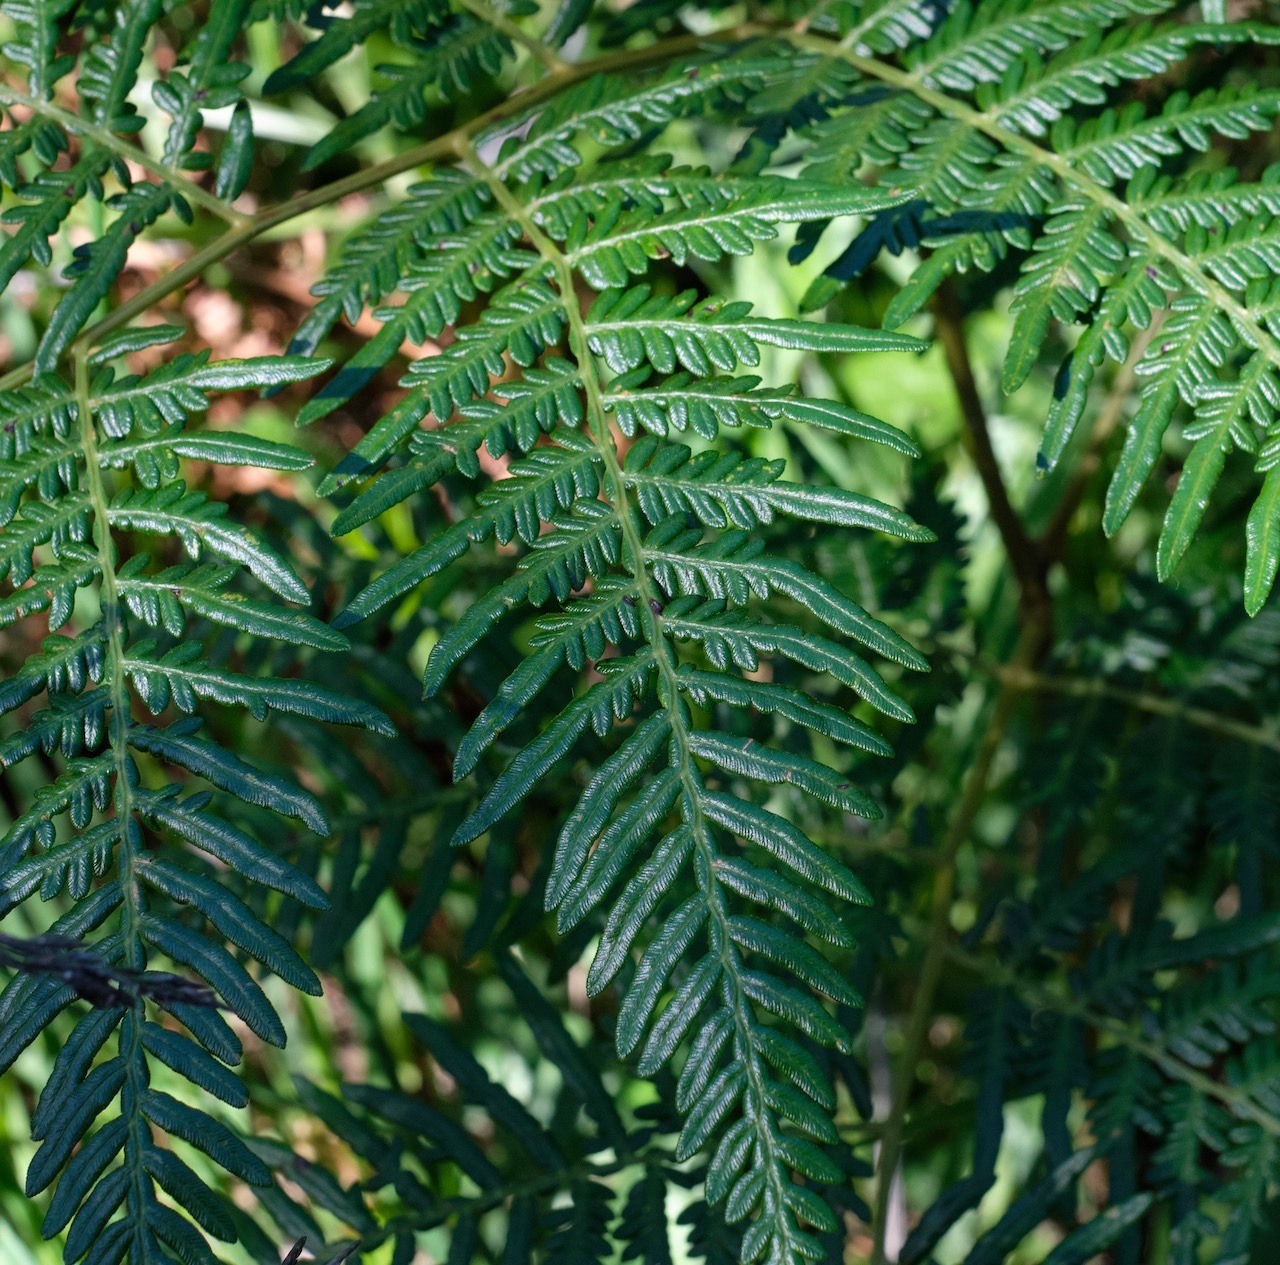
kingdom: Plantae
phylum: Tracheophyta
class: Polypodiopsida
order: Polypodiales
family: Dennstaedtiaceae
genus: Pteridium
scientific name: Pteridium esculentum
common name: Bracken fern
